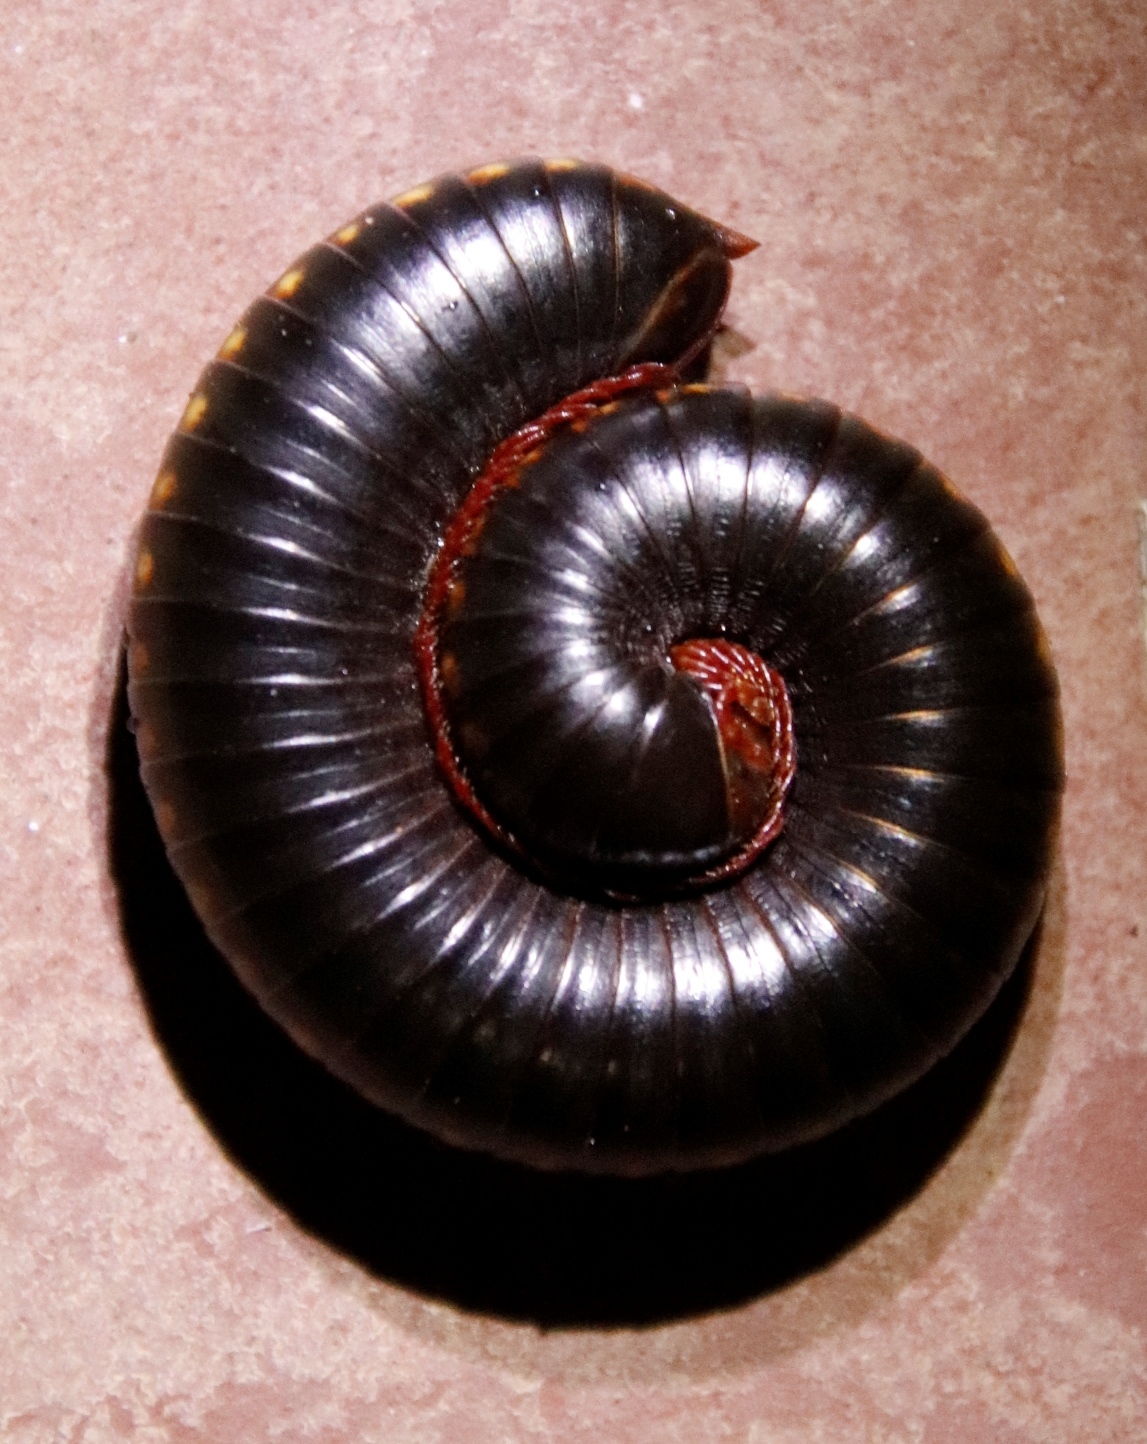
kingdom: Animalia
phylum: Arthropoda
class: Diplopoda
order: Spirostreptida
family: Harpagophoridae
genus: Zinophora
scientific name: Zinophora brevispina
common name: Short-spined large spined millipede
